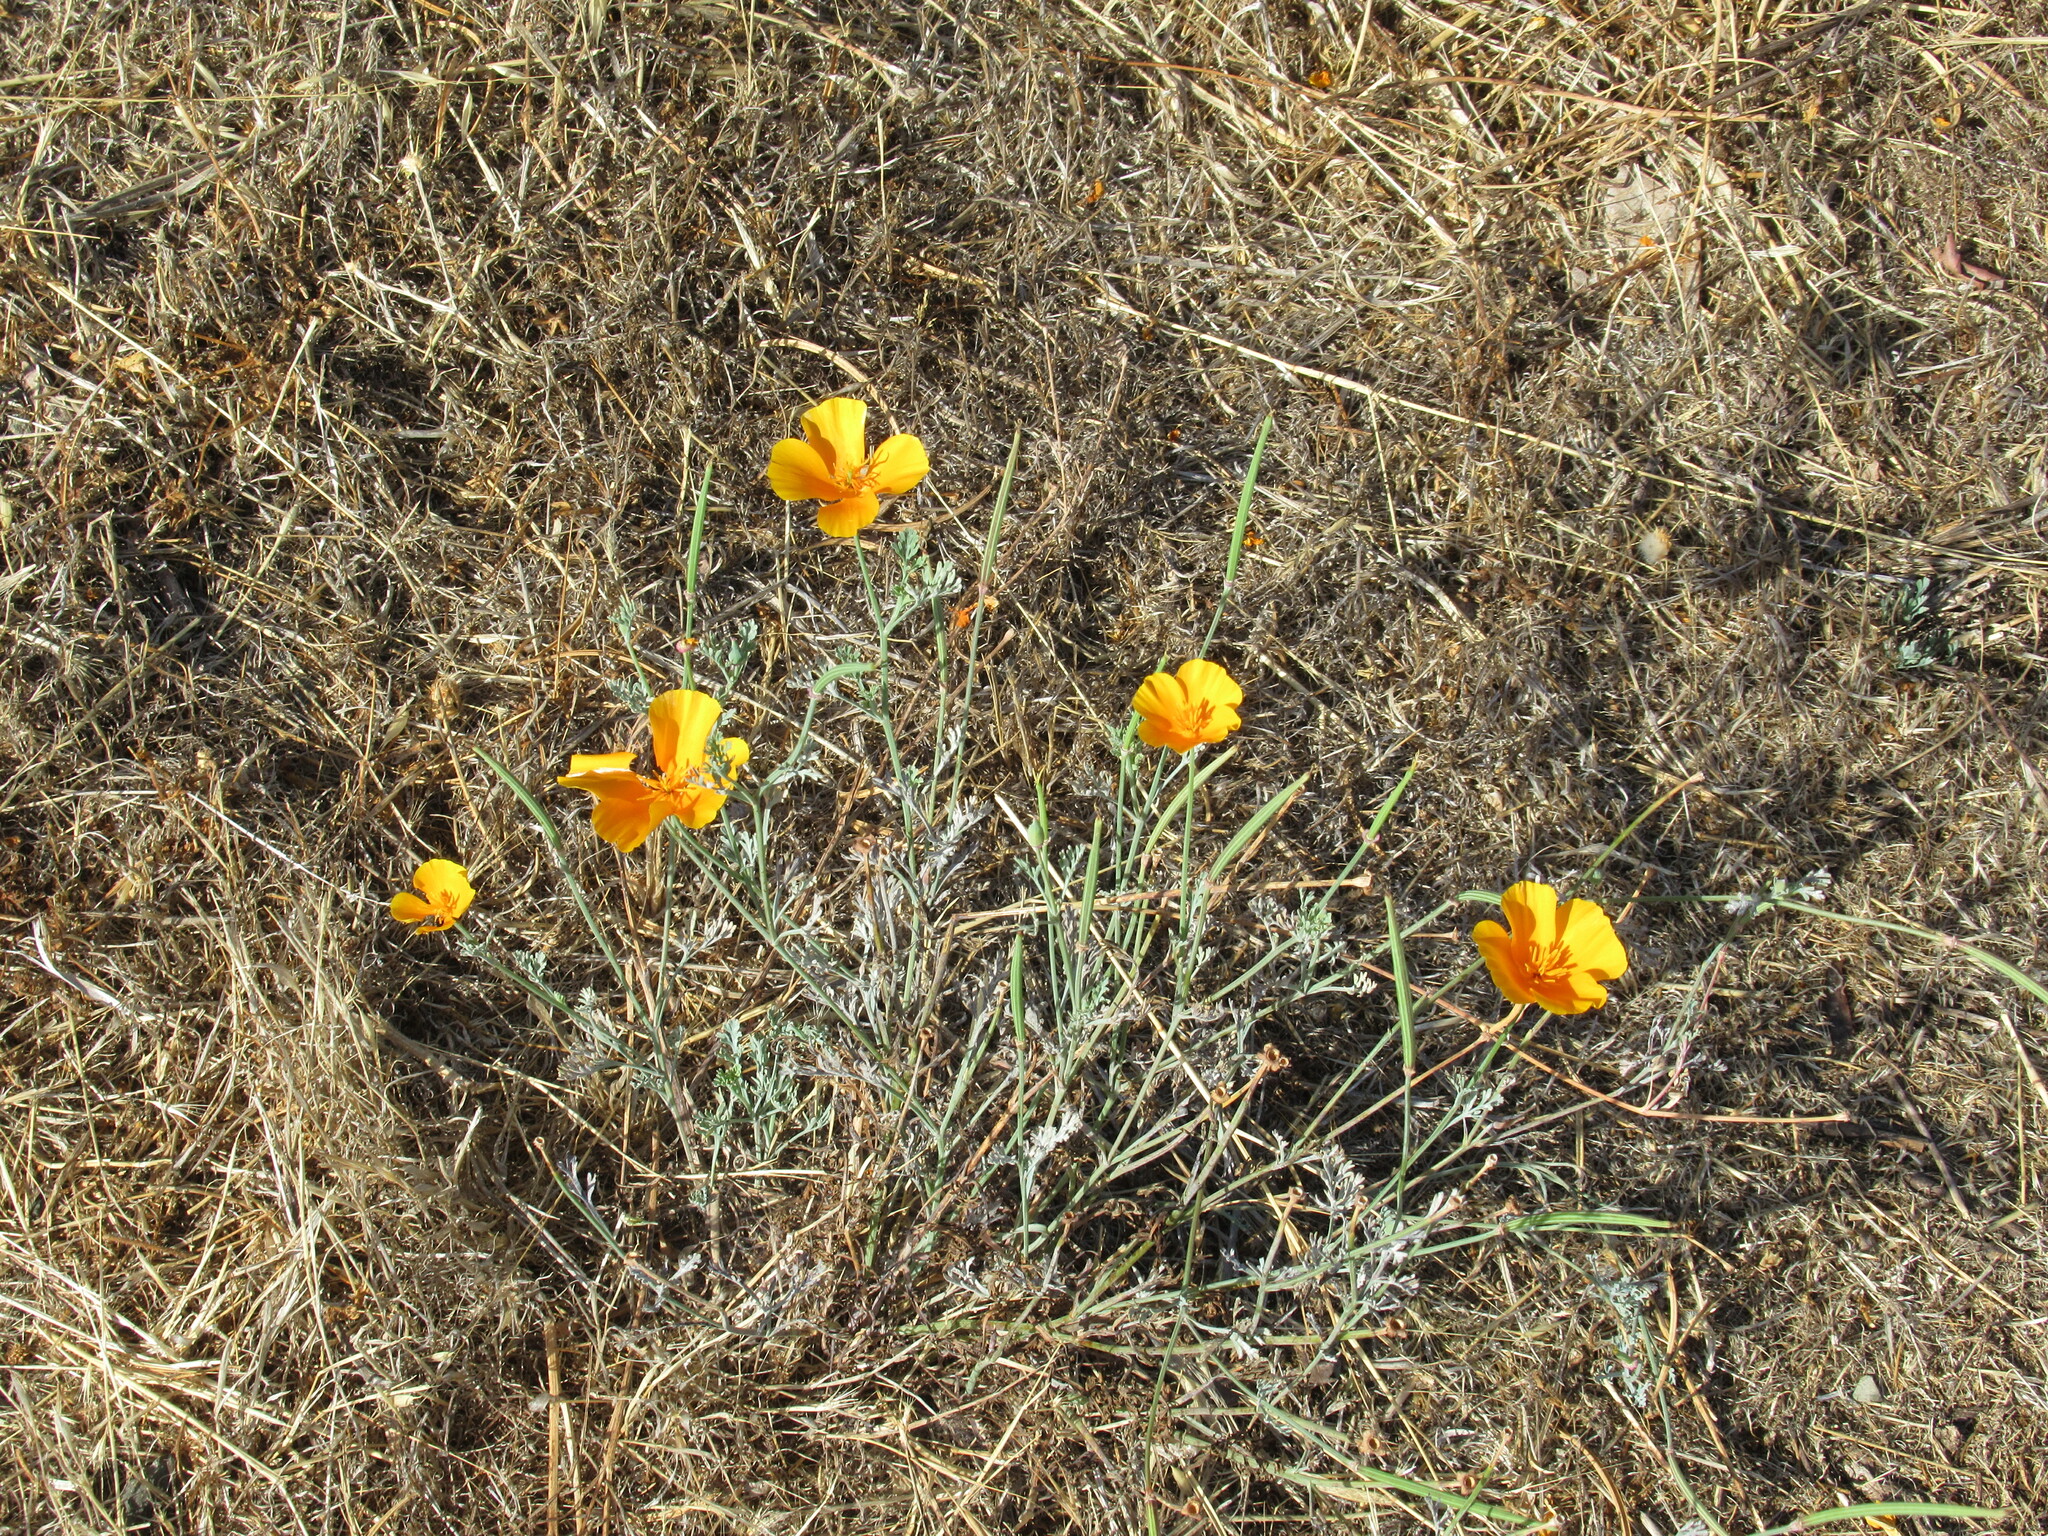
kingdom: Plantae
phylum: Tracheophyta
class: Magnoliopsida
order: Ranunculales
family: Papaveraceae
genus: Eschscholzia
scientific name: Eschscholzia californica
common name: California poppy
